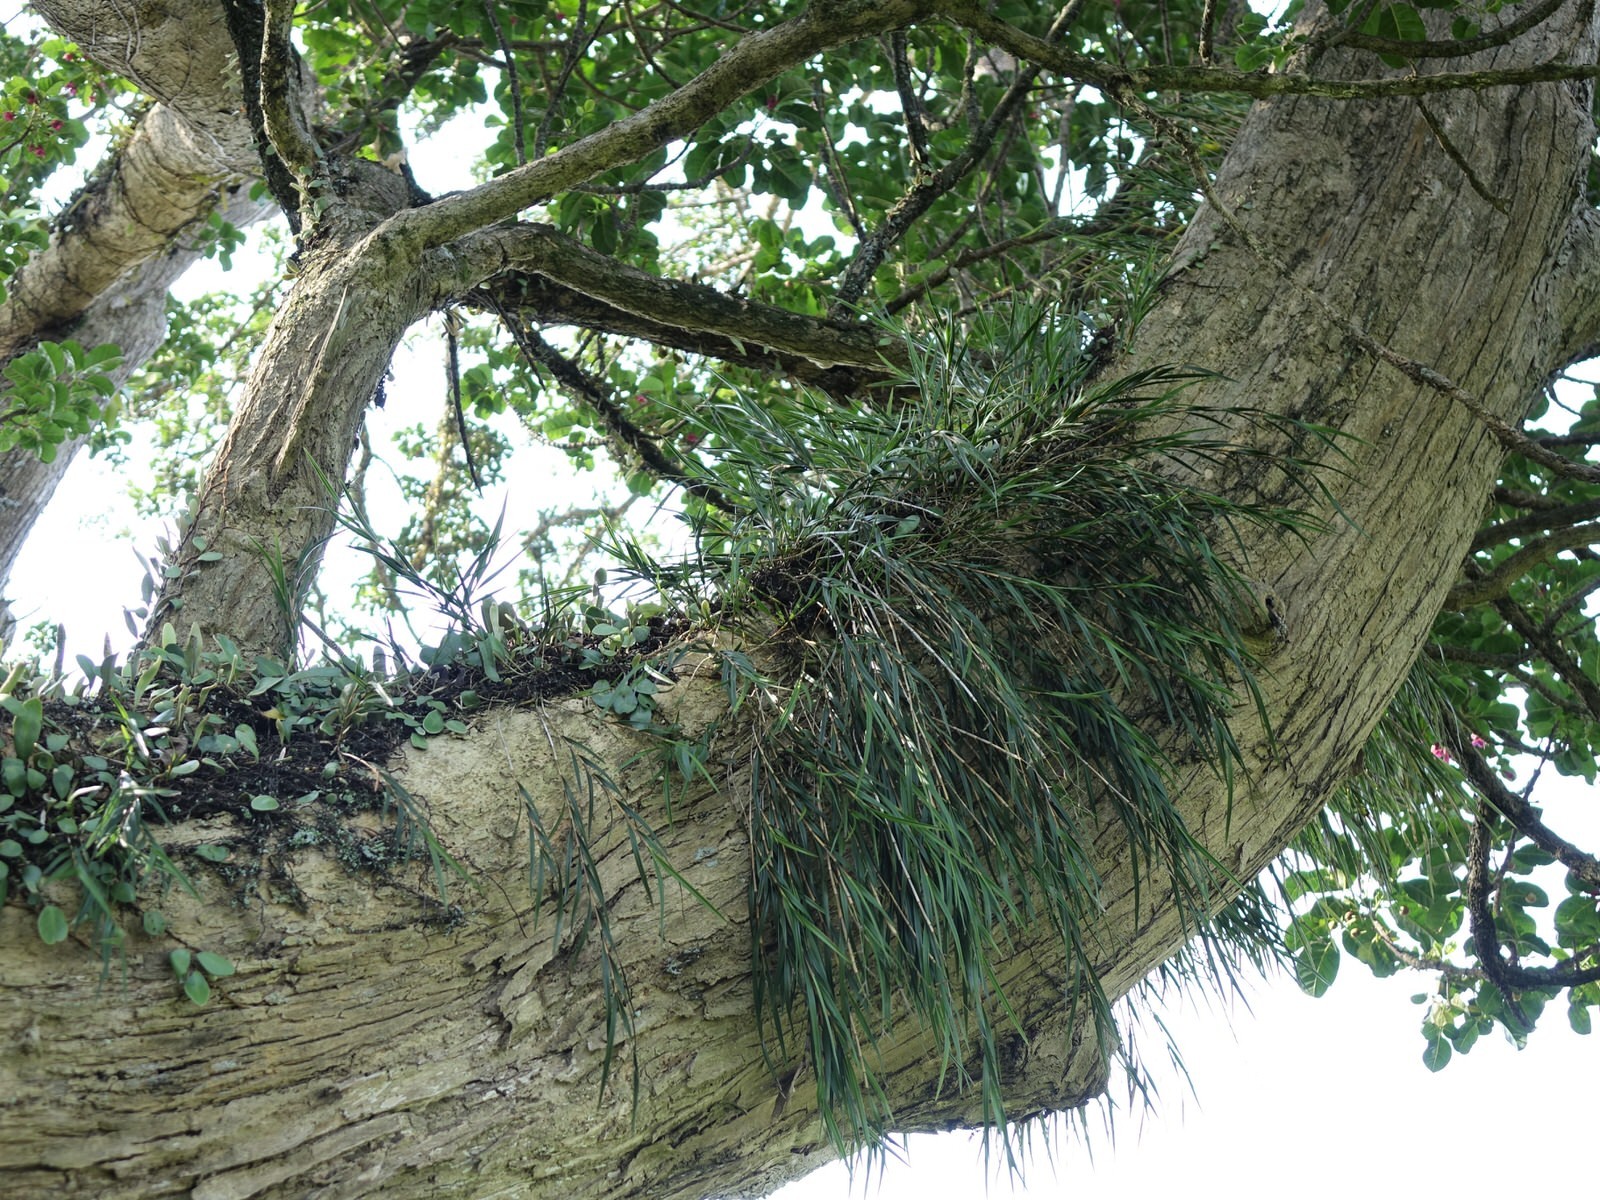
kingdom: Plantae
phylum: Tracheophyta
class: Liliopsida
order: Asparagales
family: Orchidaceae
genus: Earina
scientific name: Earina mucronata
